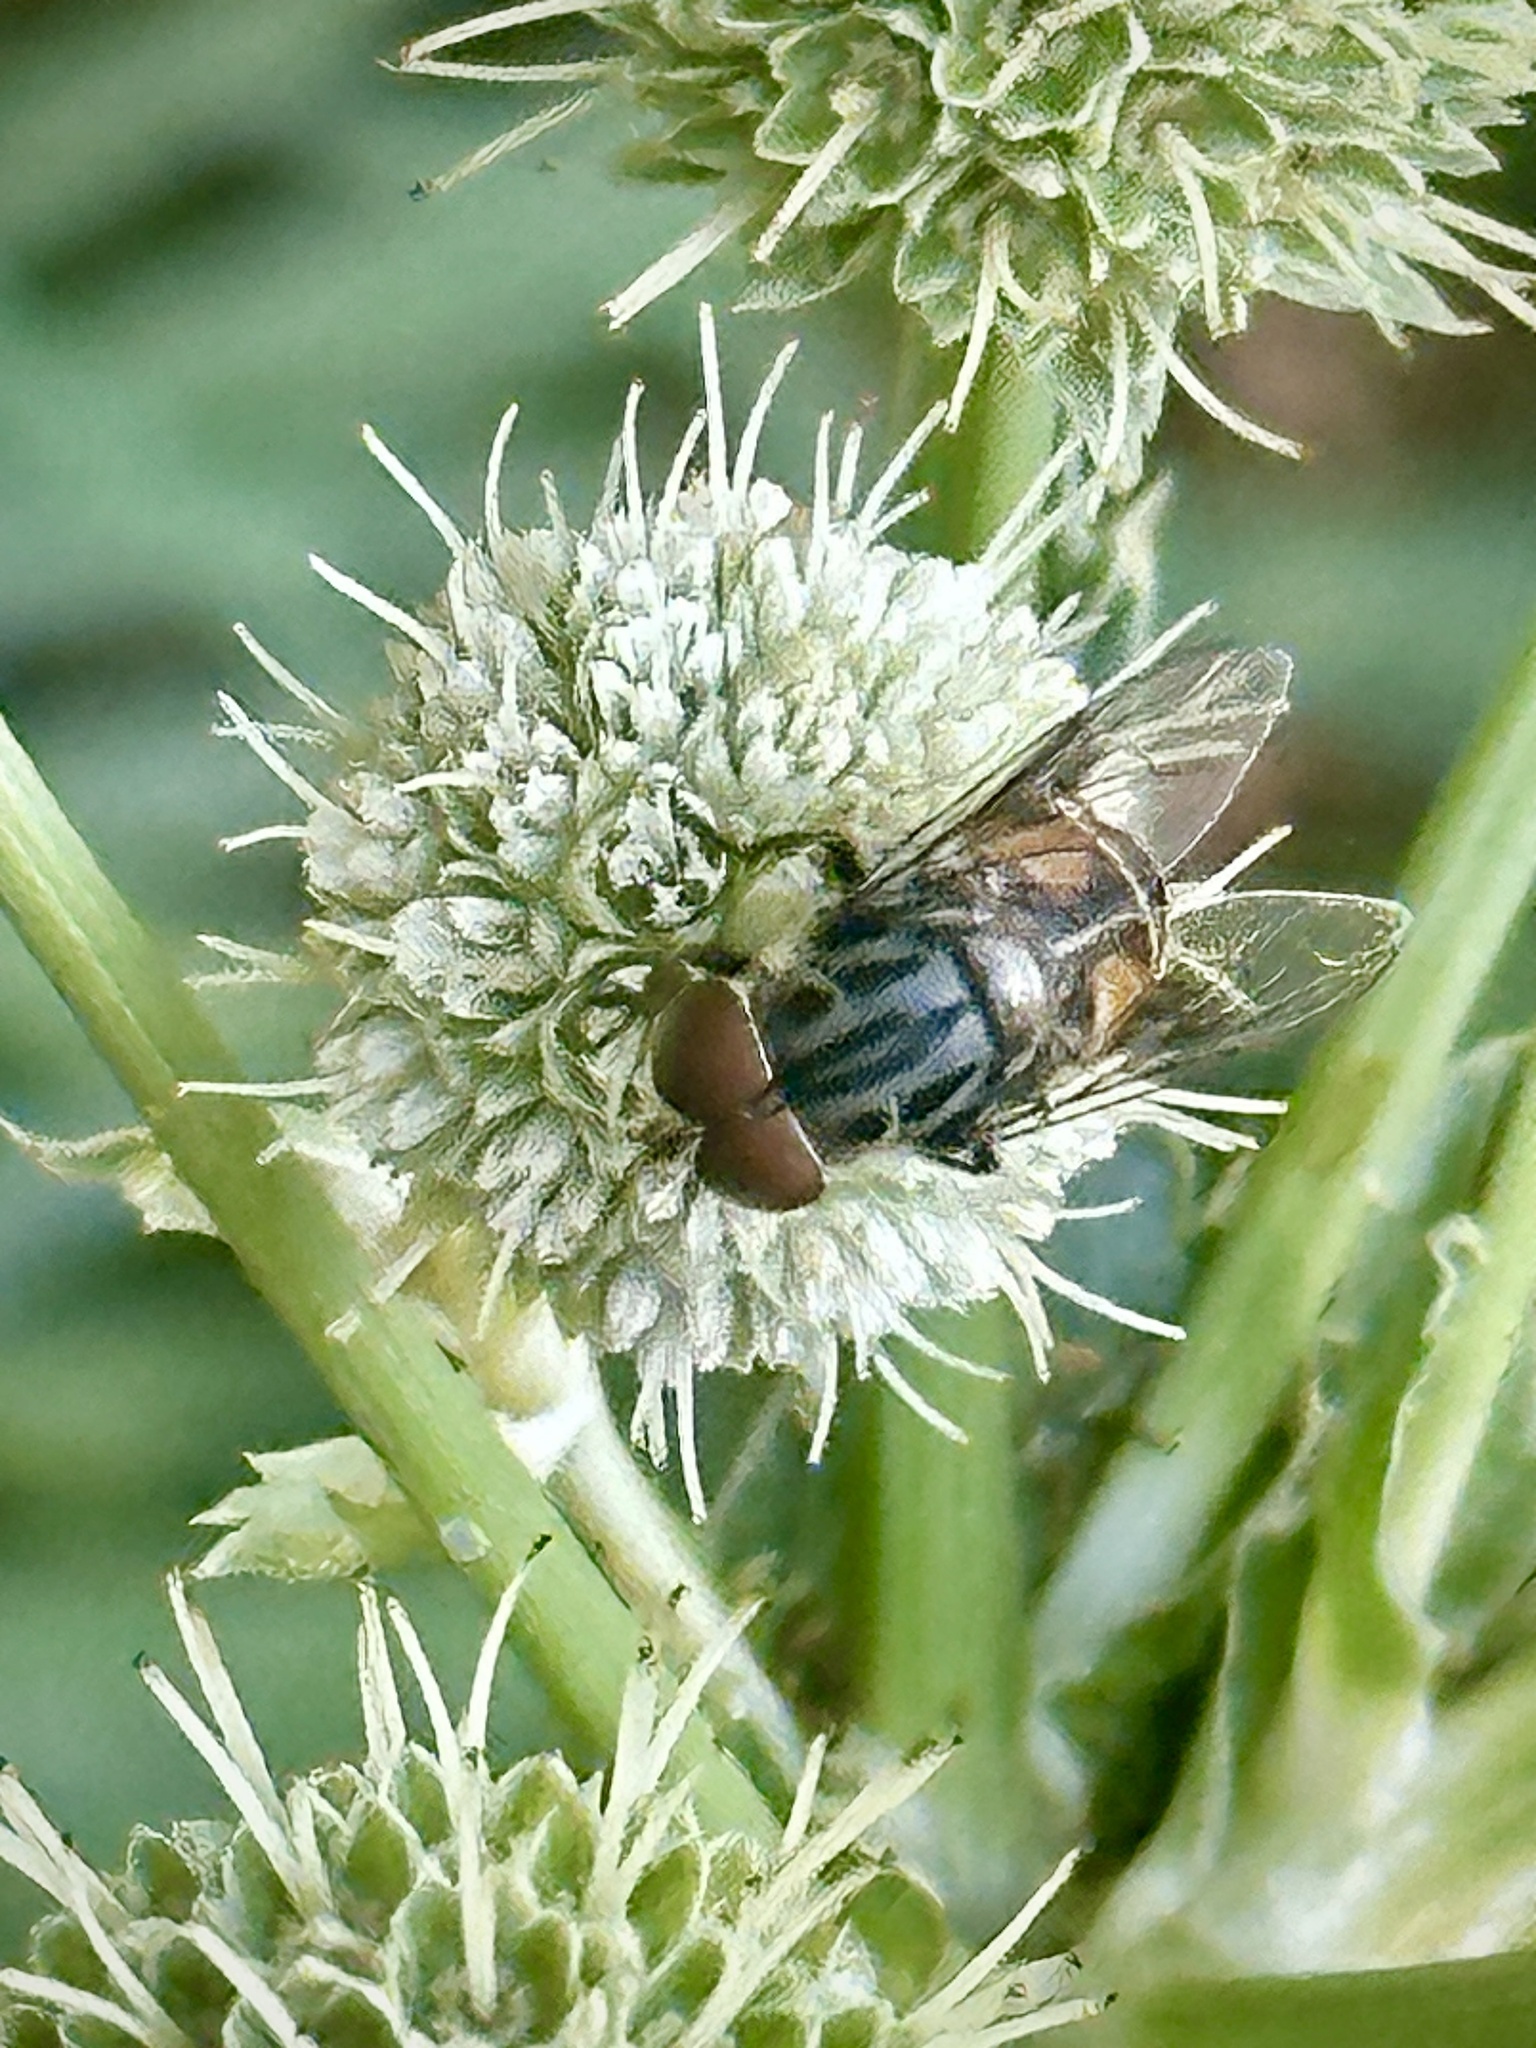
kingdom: Animalia
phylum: Arthropoda
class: Insecta
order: Diptera
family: Syrphidae
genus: Palpada
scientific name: Palpada furcata
